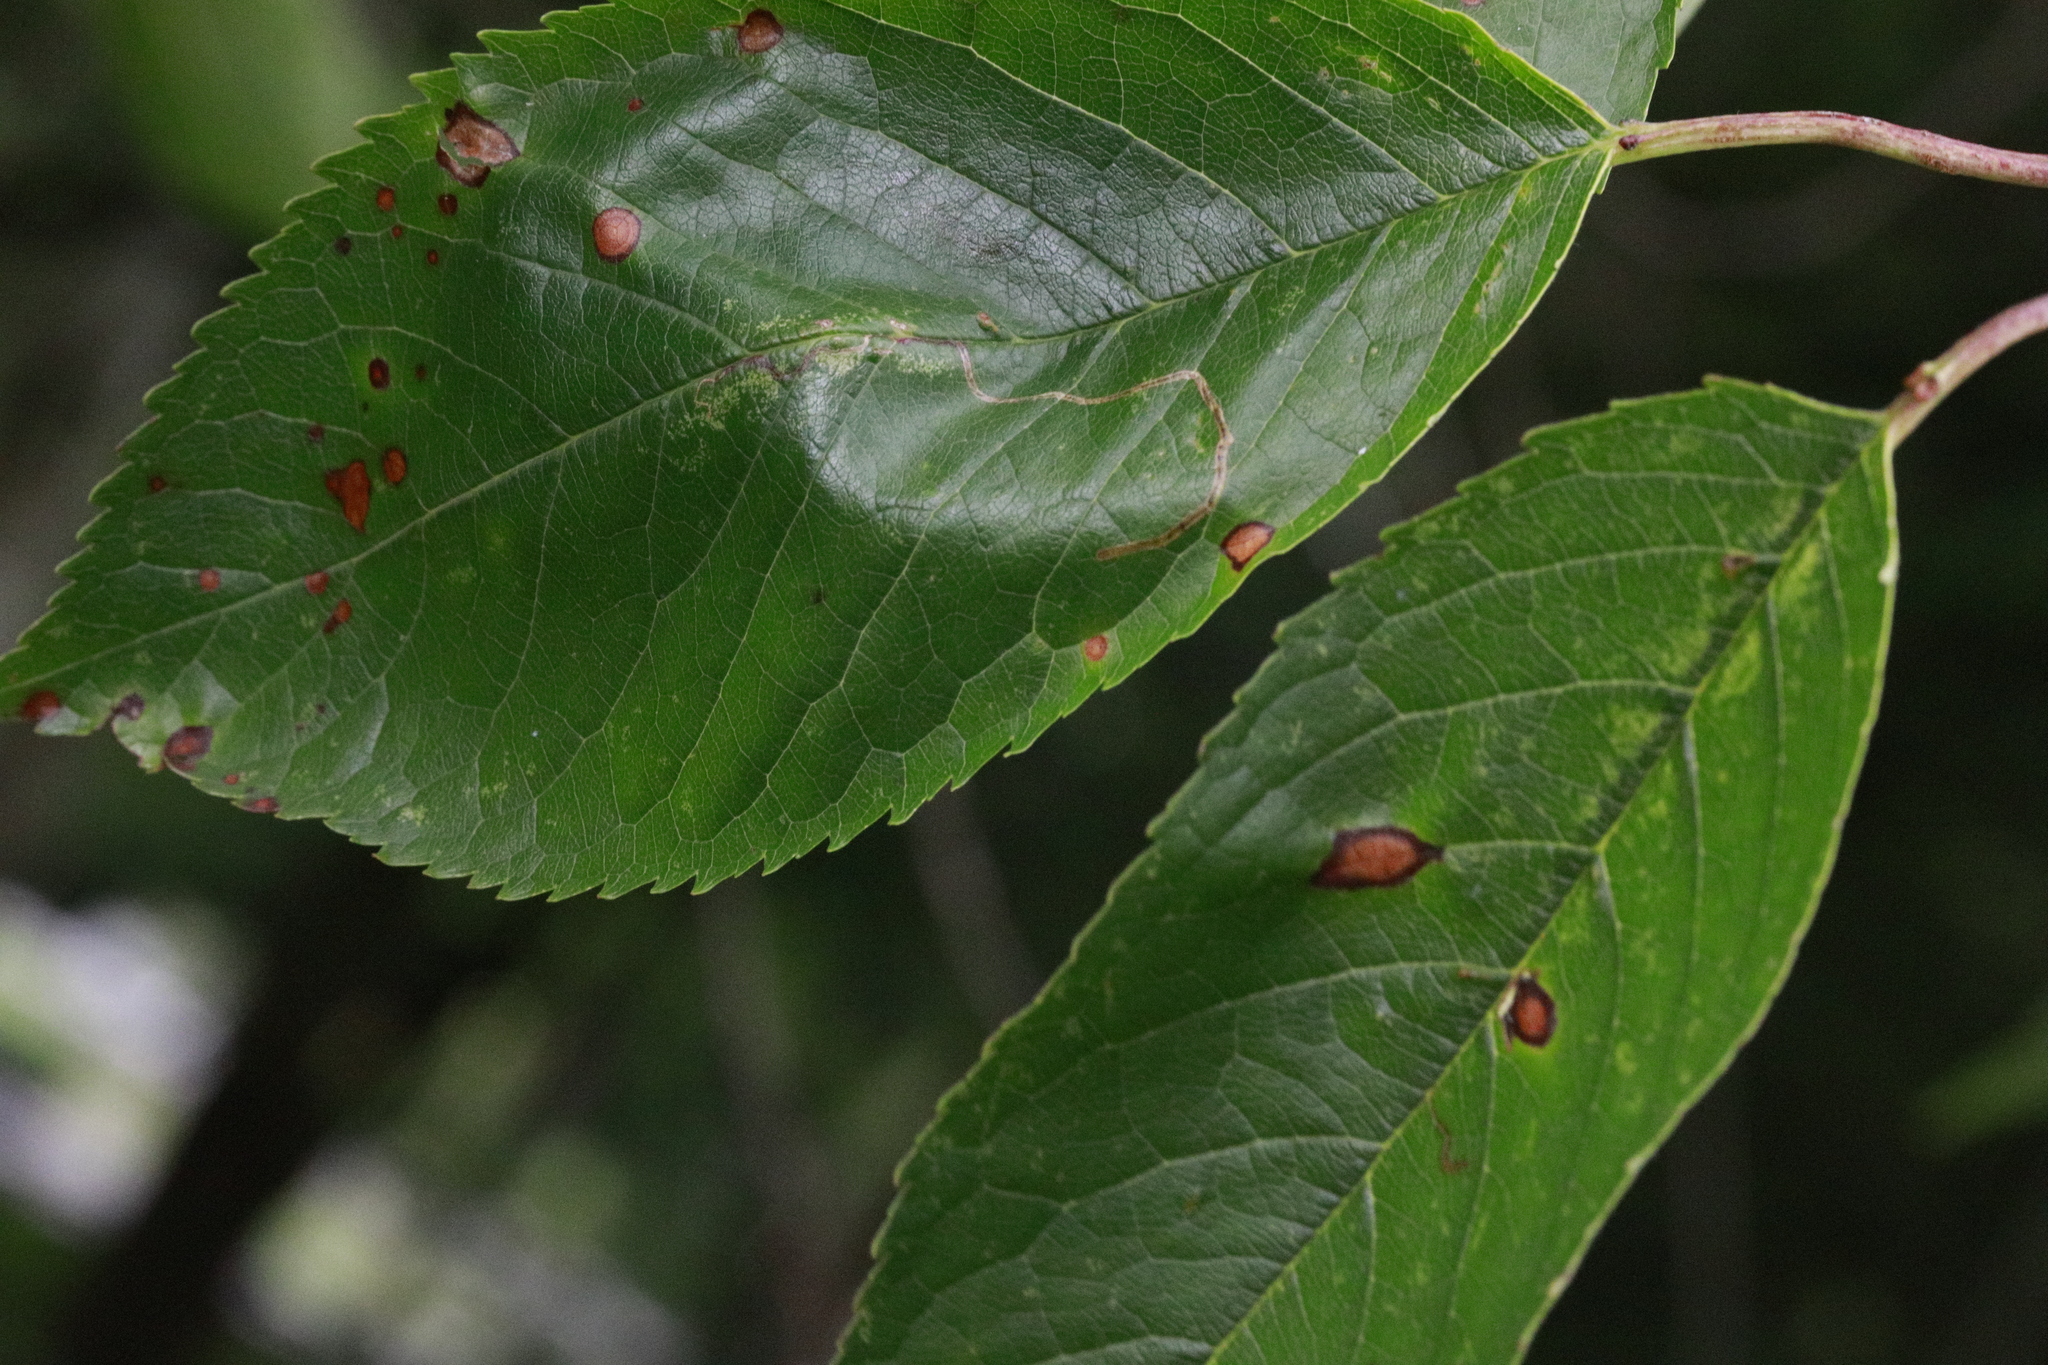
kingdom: Animalia
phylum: Arthropoda
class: Insecta
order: Lepidoptera
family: Lyonetiidae
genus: Lyonetia
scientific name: Lyonetia clerkella
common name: Apple leaf miner
